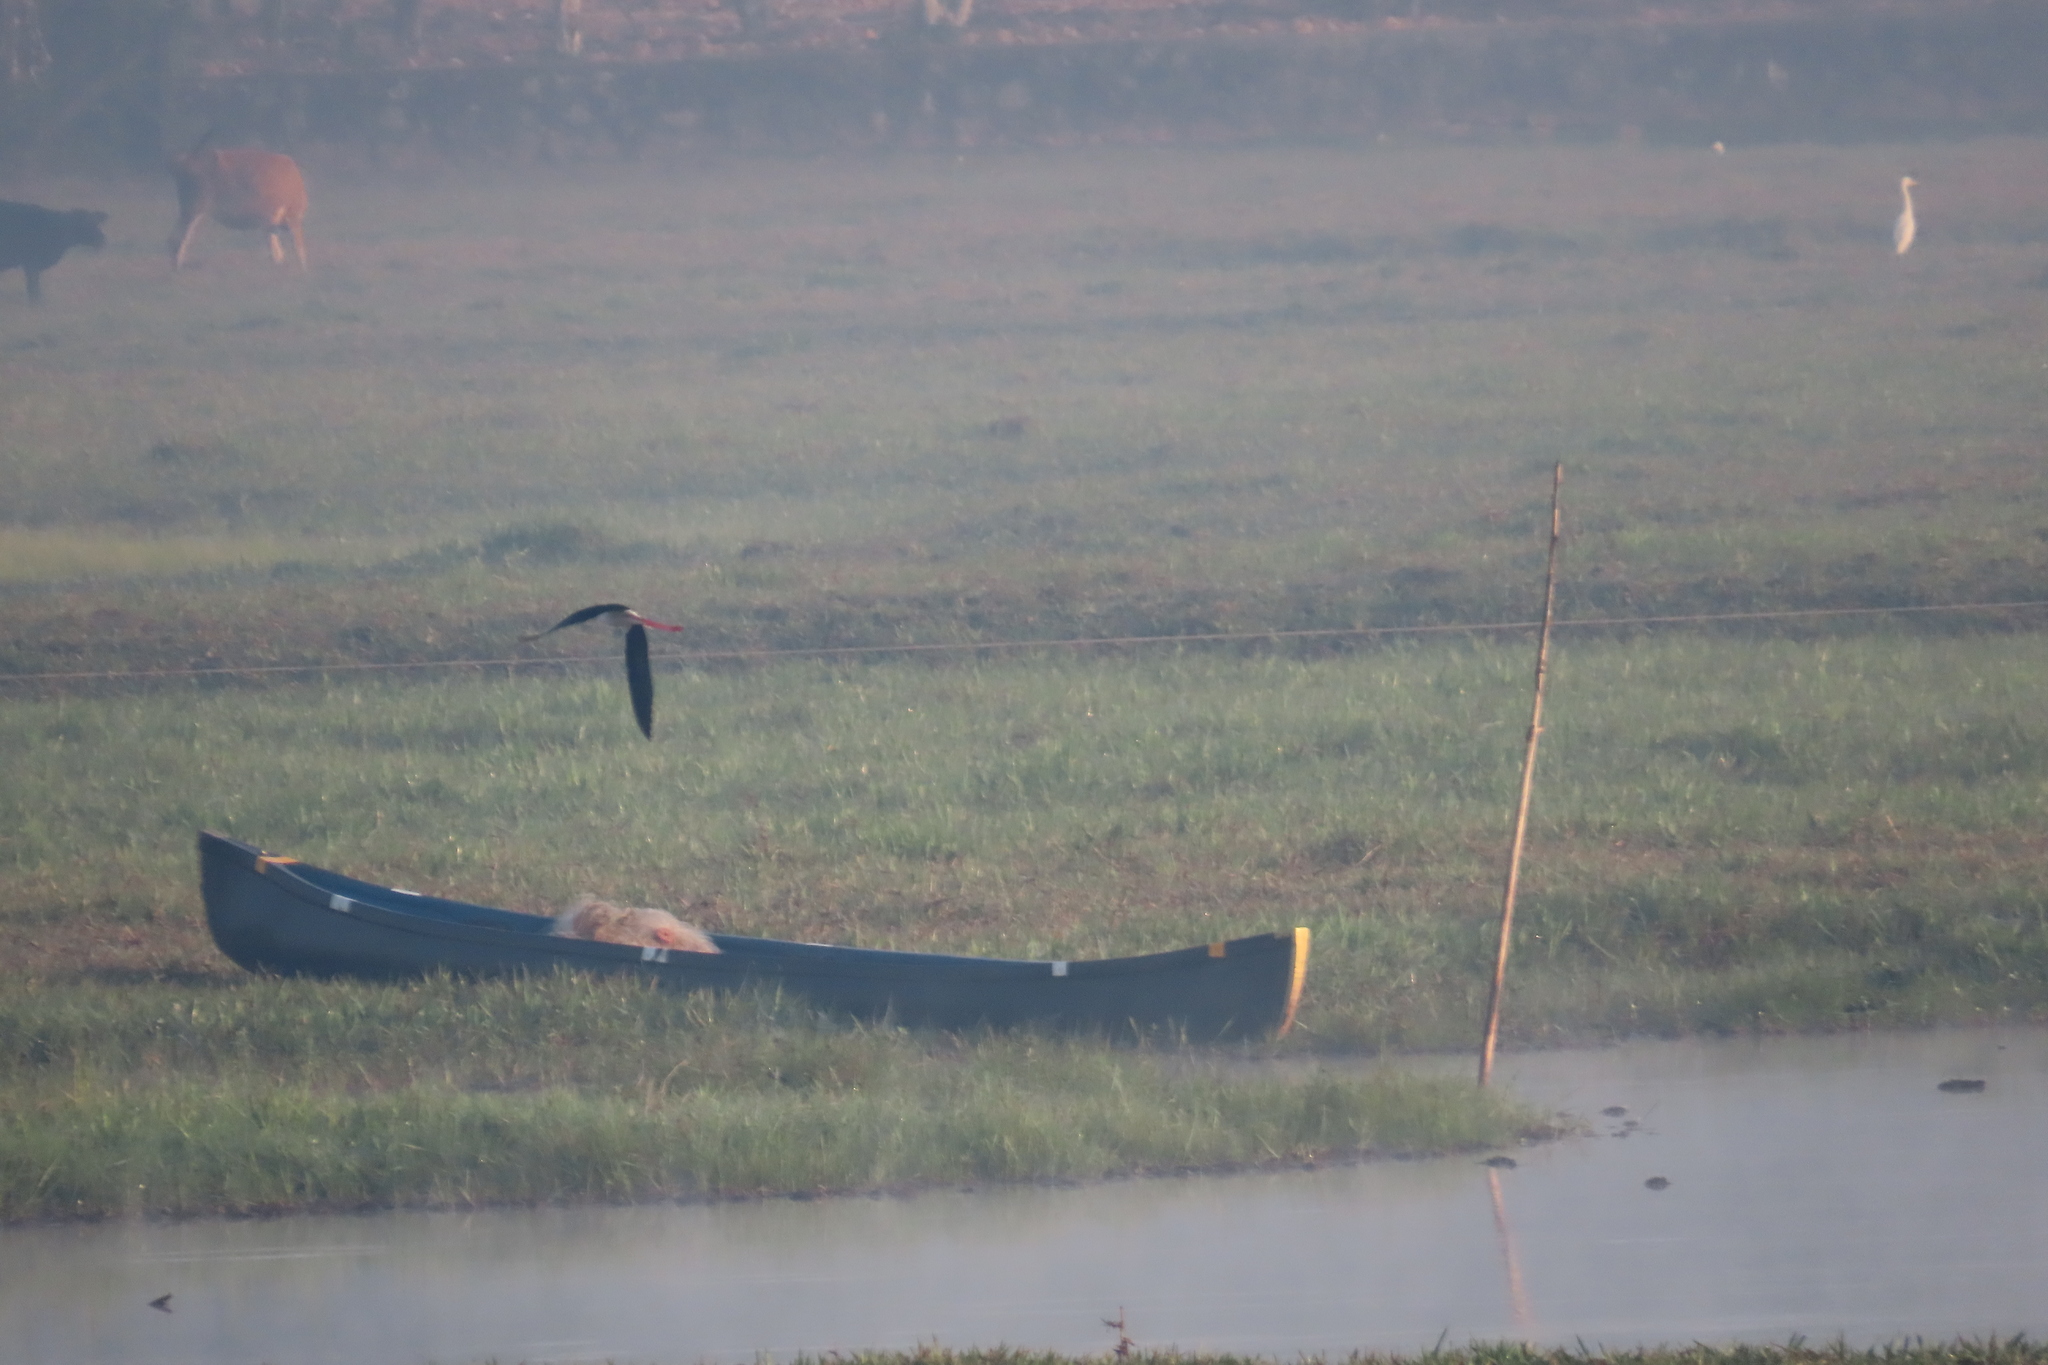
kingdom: Animalia
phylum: Chordata
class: Aves
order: Charadriiformes
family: Recurvirostridae
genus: Himantopus
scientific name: Himantopus himantopus
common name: Black-winged stilt
